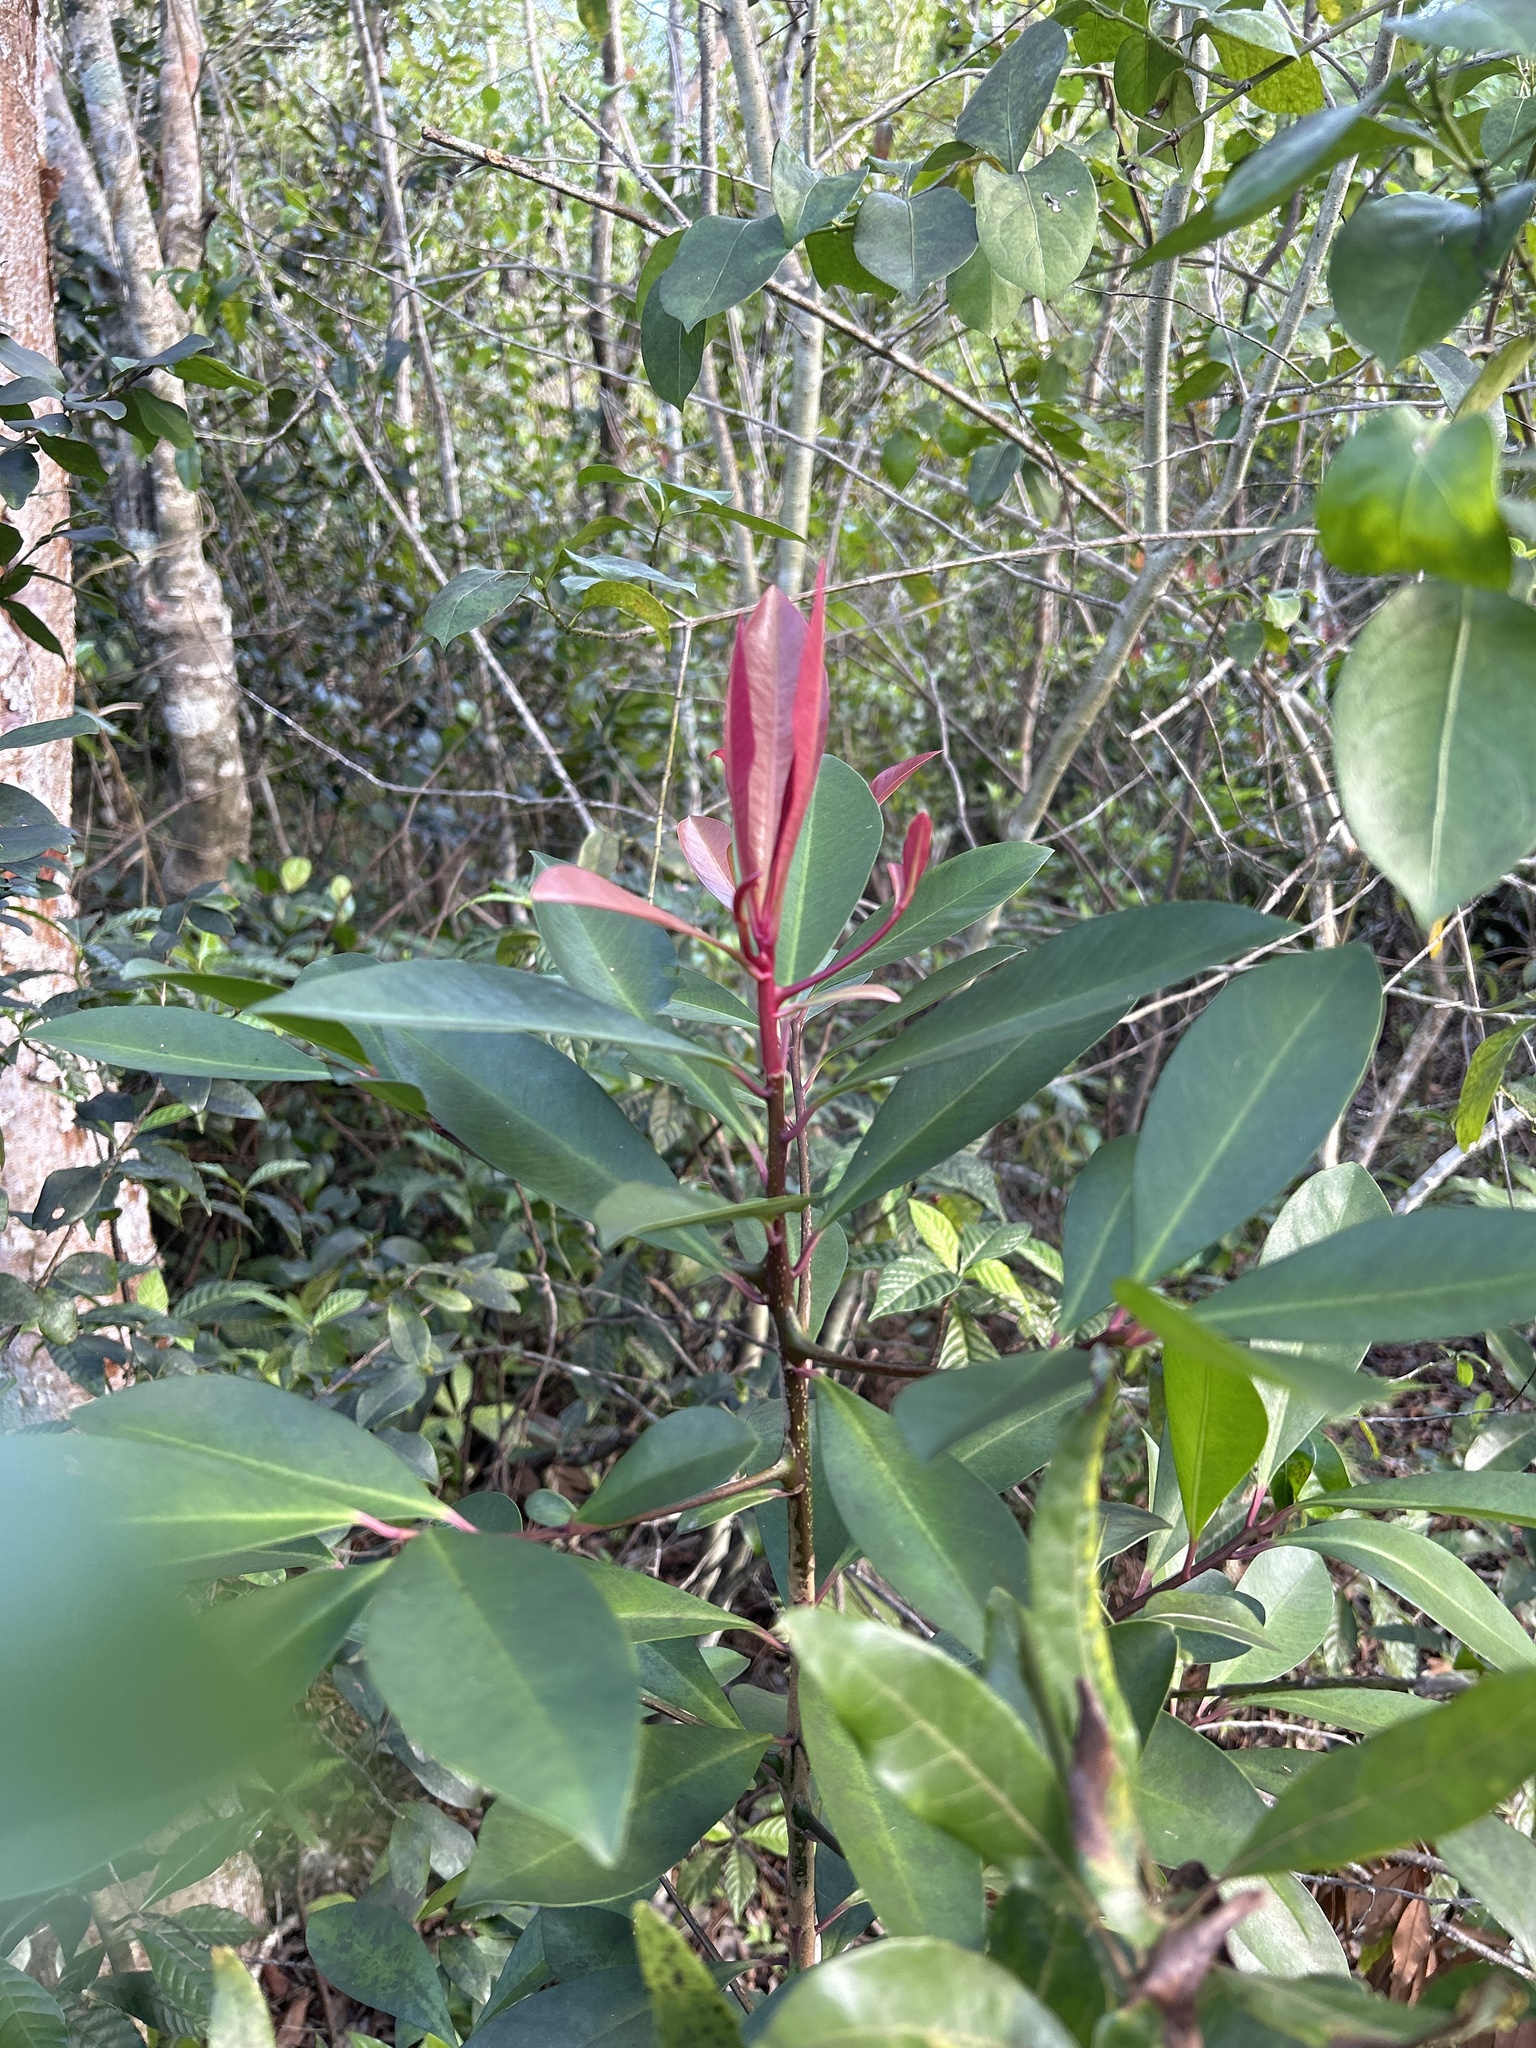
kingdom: Plantae
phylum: Tracheophyta
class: Magnoliopsida
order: Ericales
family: Primulaceae
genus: Ardisia
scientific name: Ardisia elliptica
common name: Shoebutton
